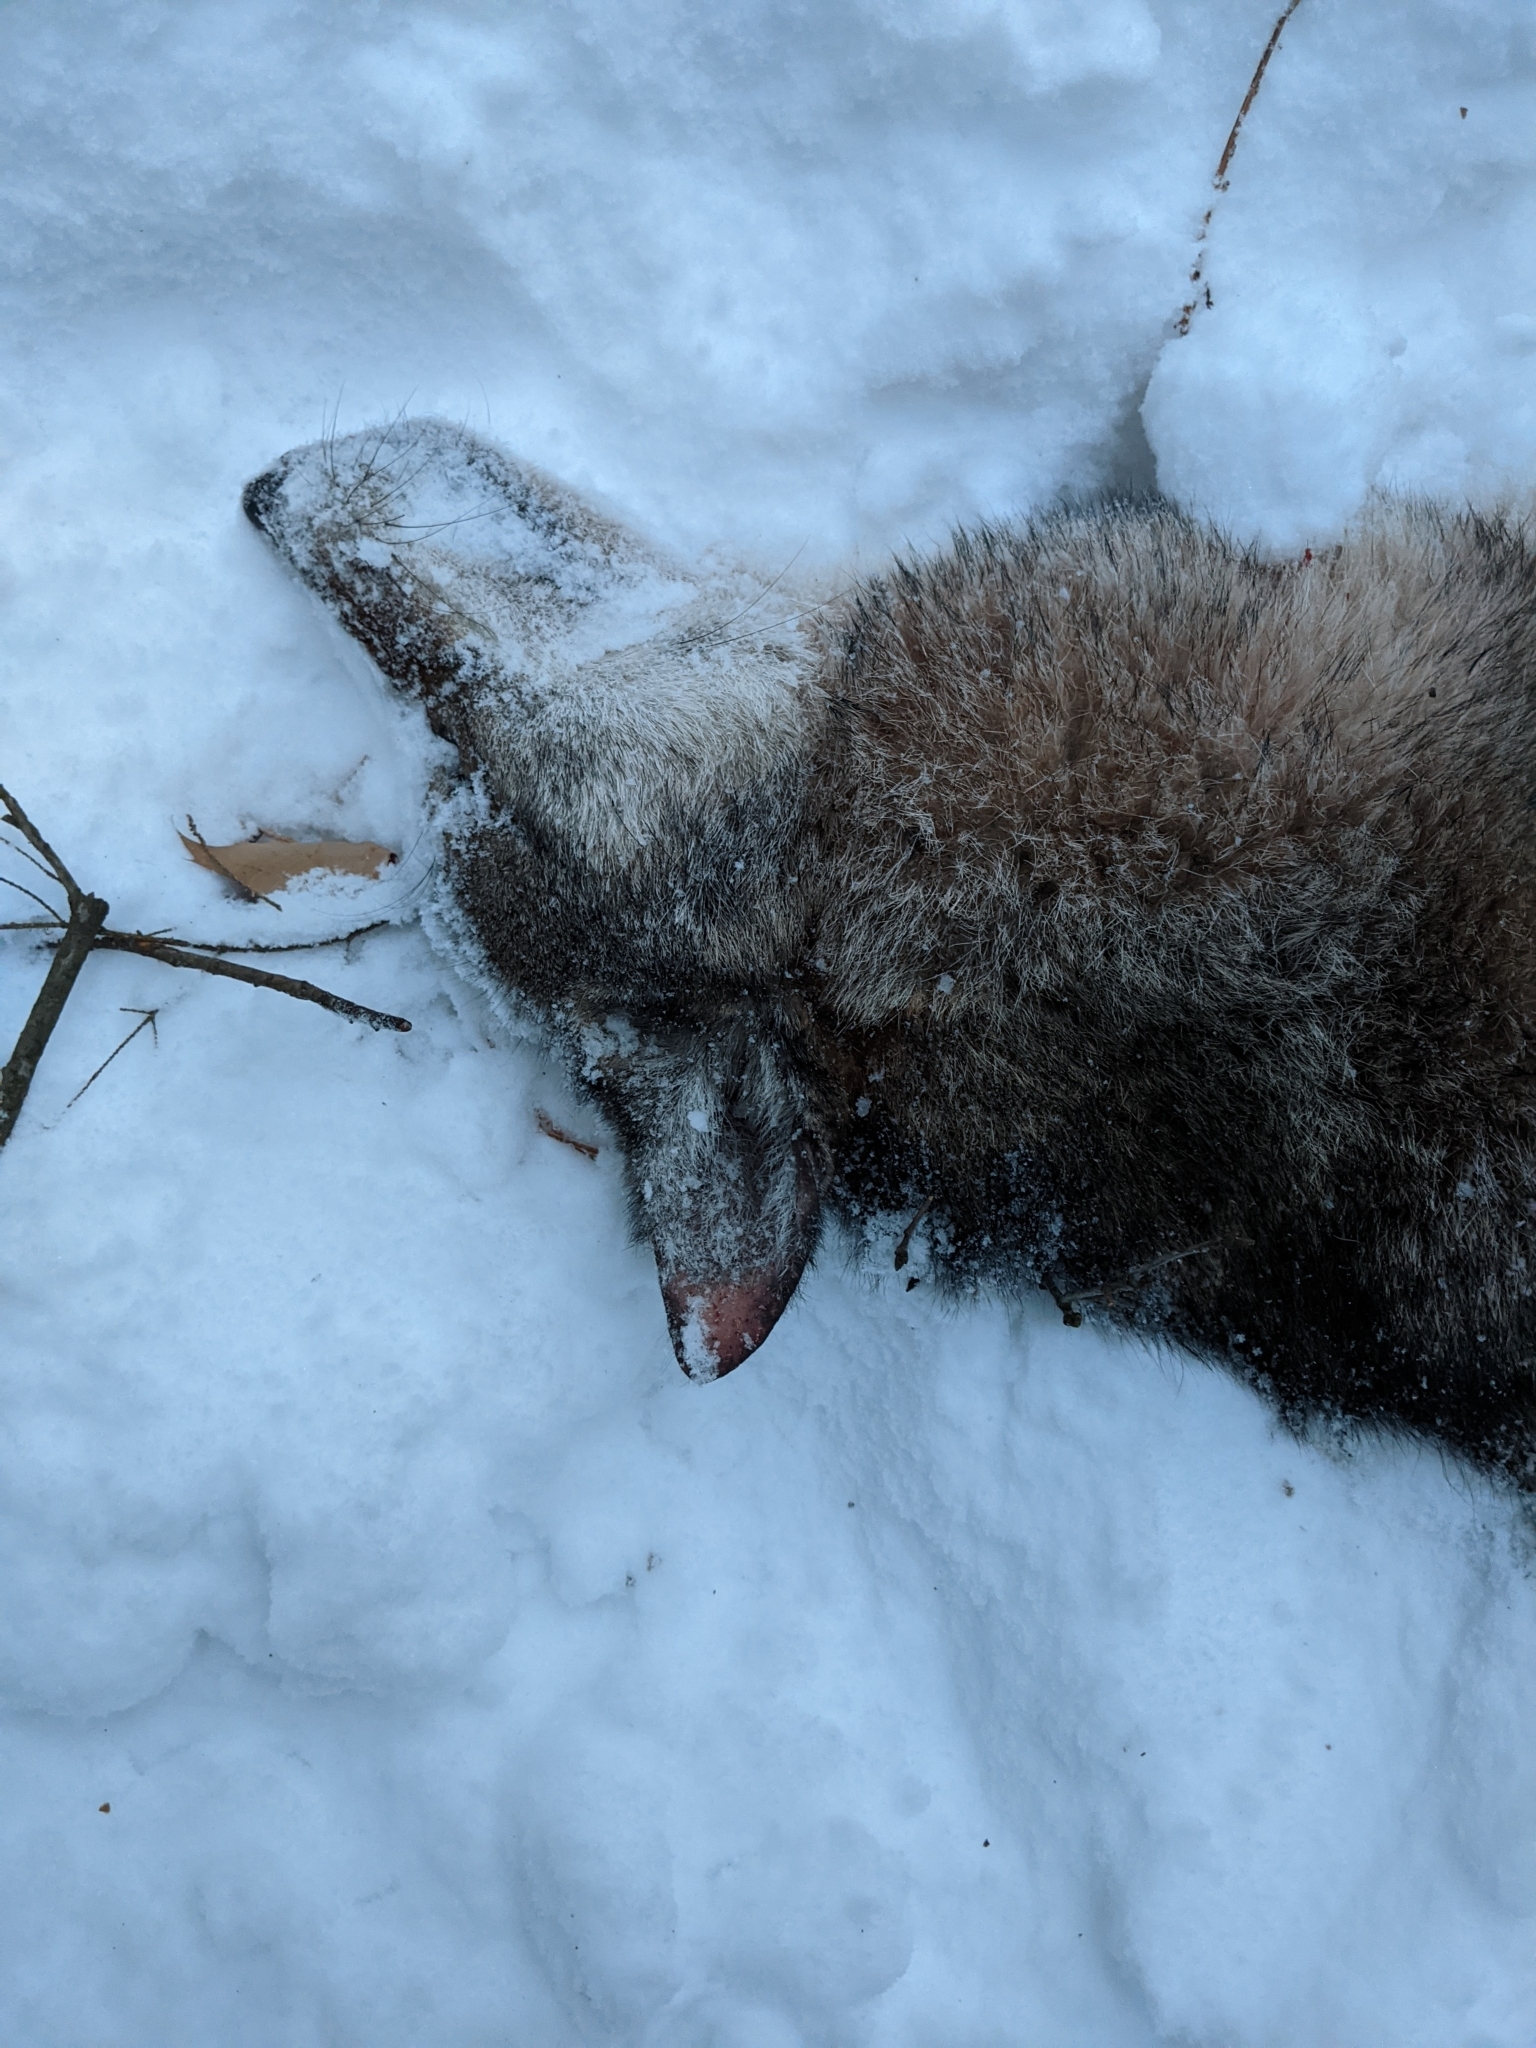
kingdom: Animalia
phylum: Chordata
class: Mammalia
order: Carnivora
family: Canidae
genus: Canis
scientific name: Canis latrans
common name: Coyote
